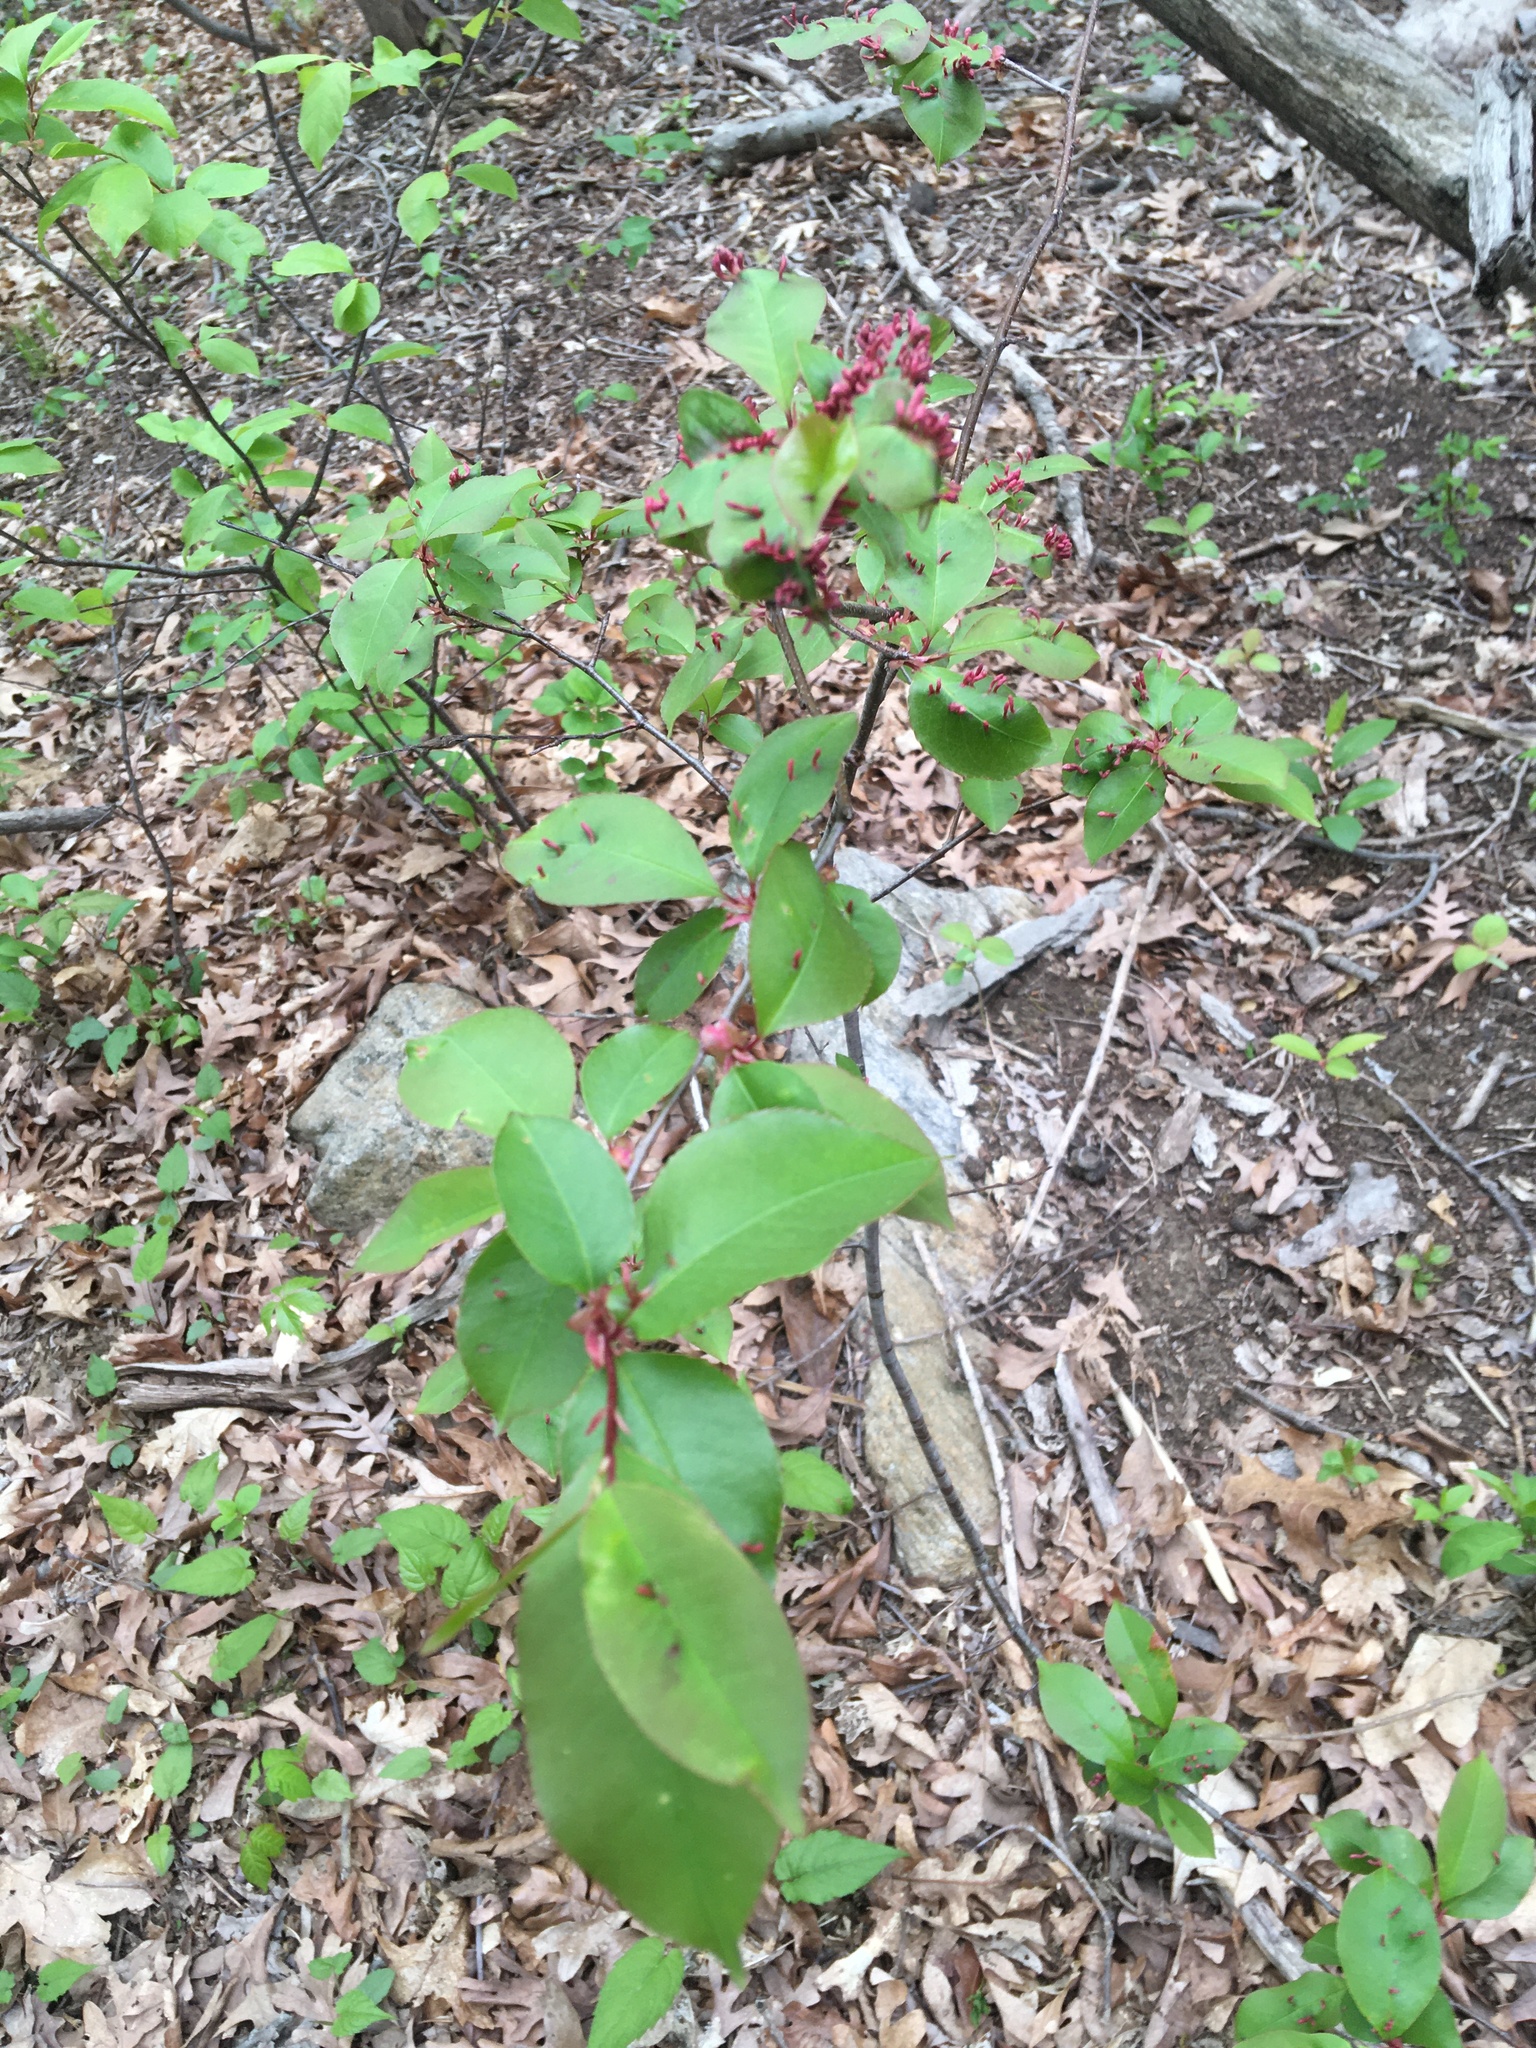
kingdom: Animalia
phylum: Arthropoda
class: Arachnida
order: Trombidiformes
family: Eriophyidae
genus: Eriophyes
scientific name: Eriophyes
